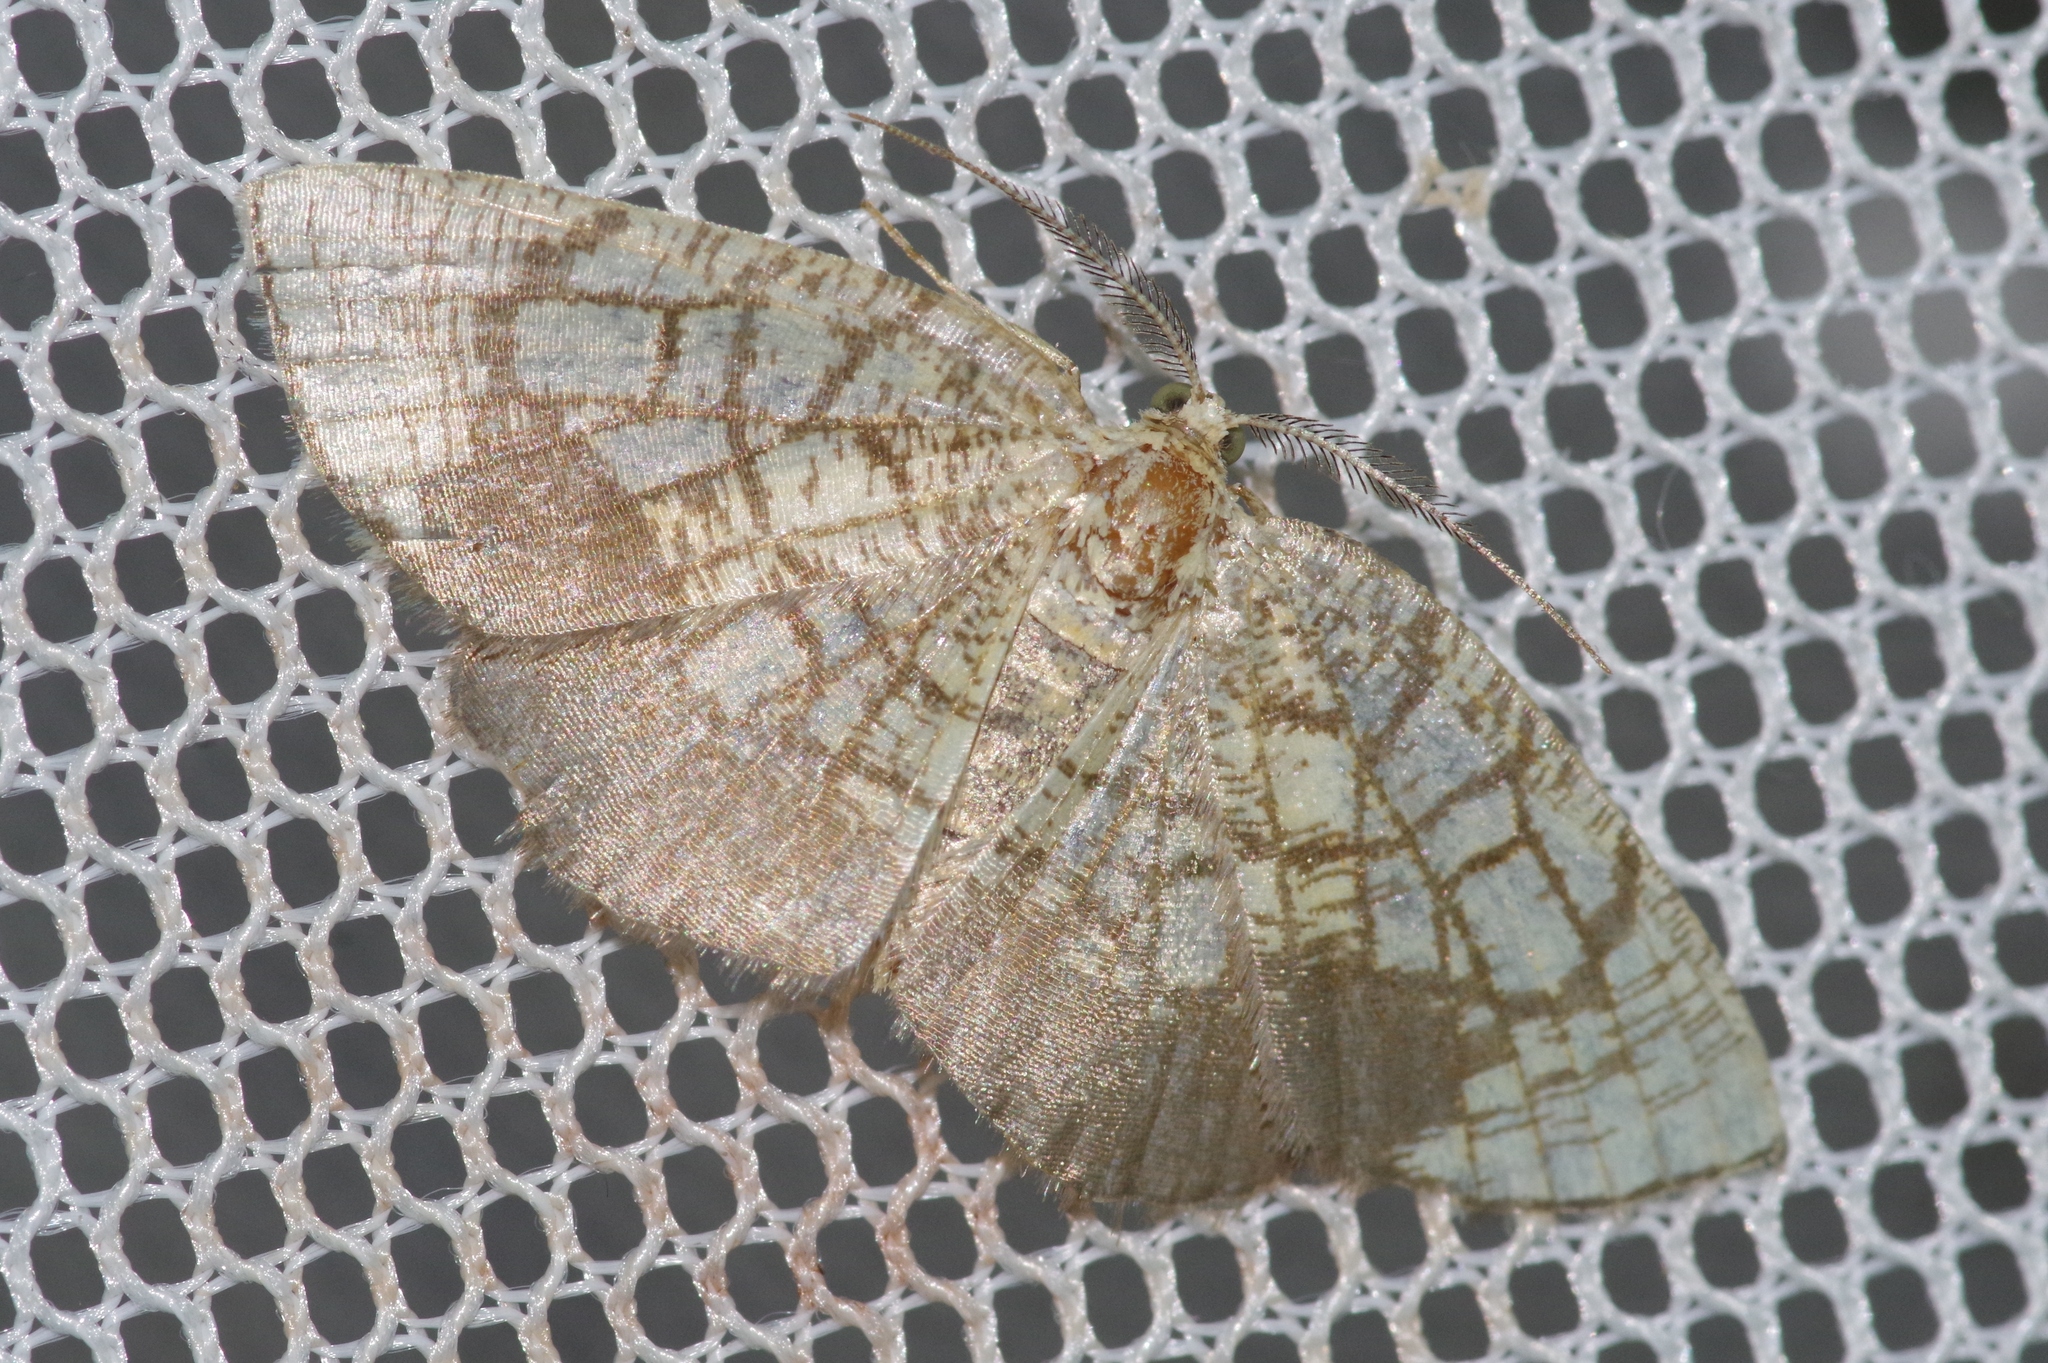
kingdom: Animalia
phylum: Arthropoda
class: Insecta
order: Lepidoptera
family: Geometridae
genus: Cabera
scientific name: Cabera griseolimbata
